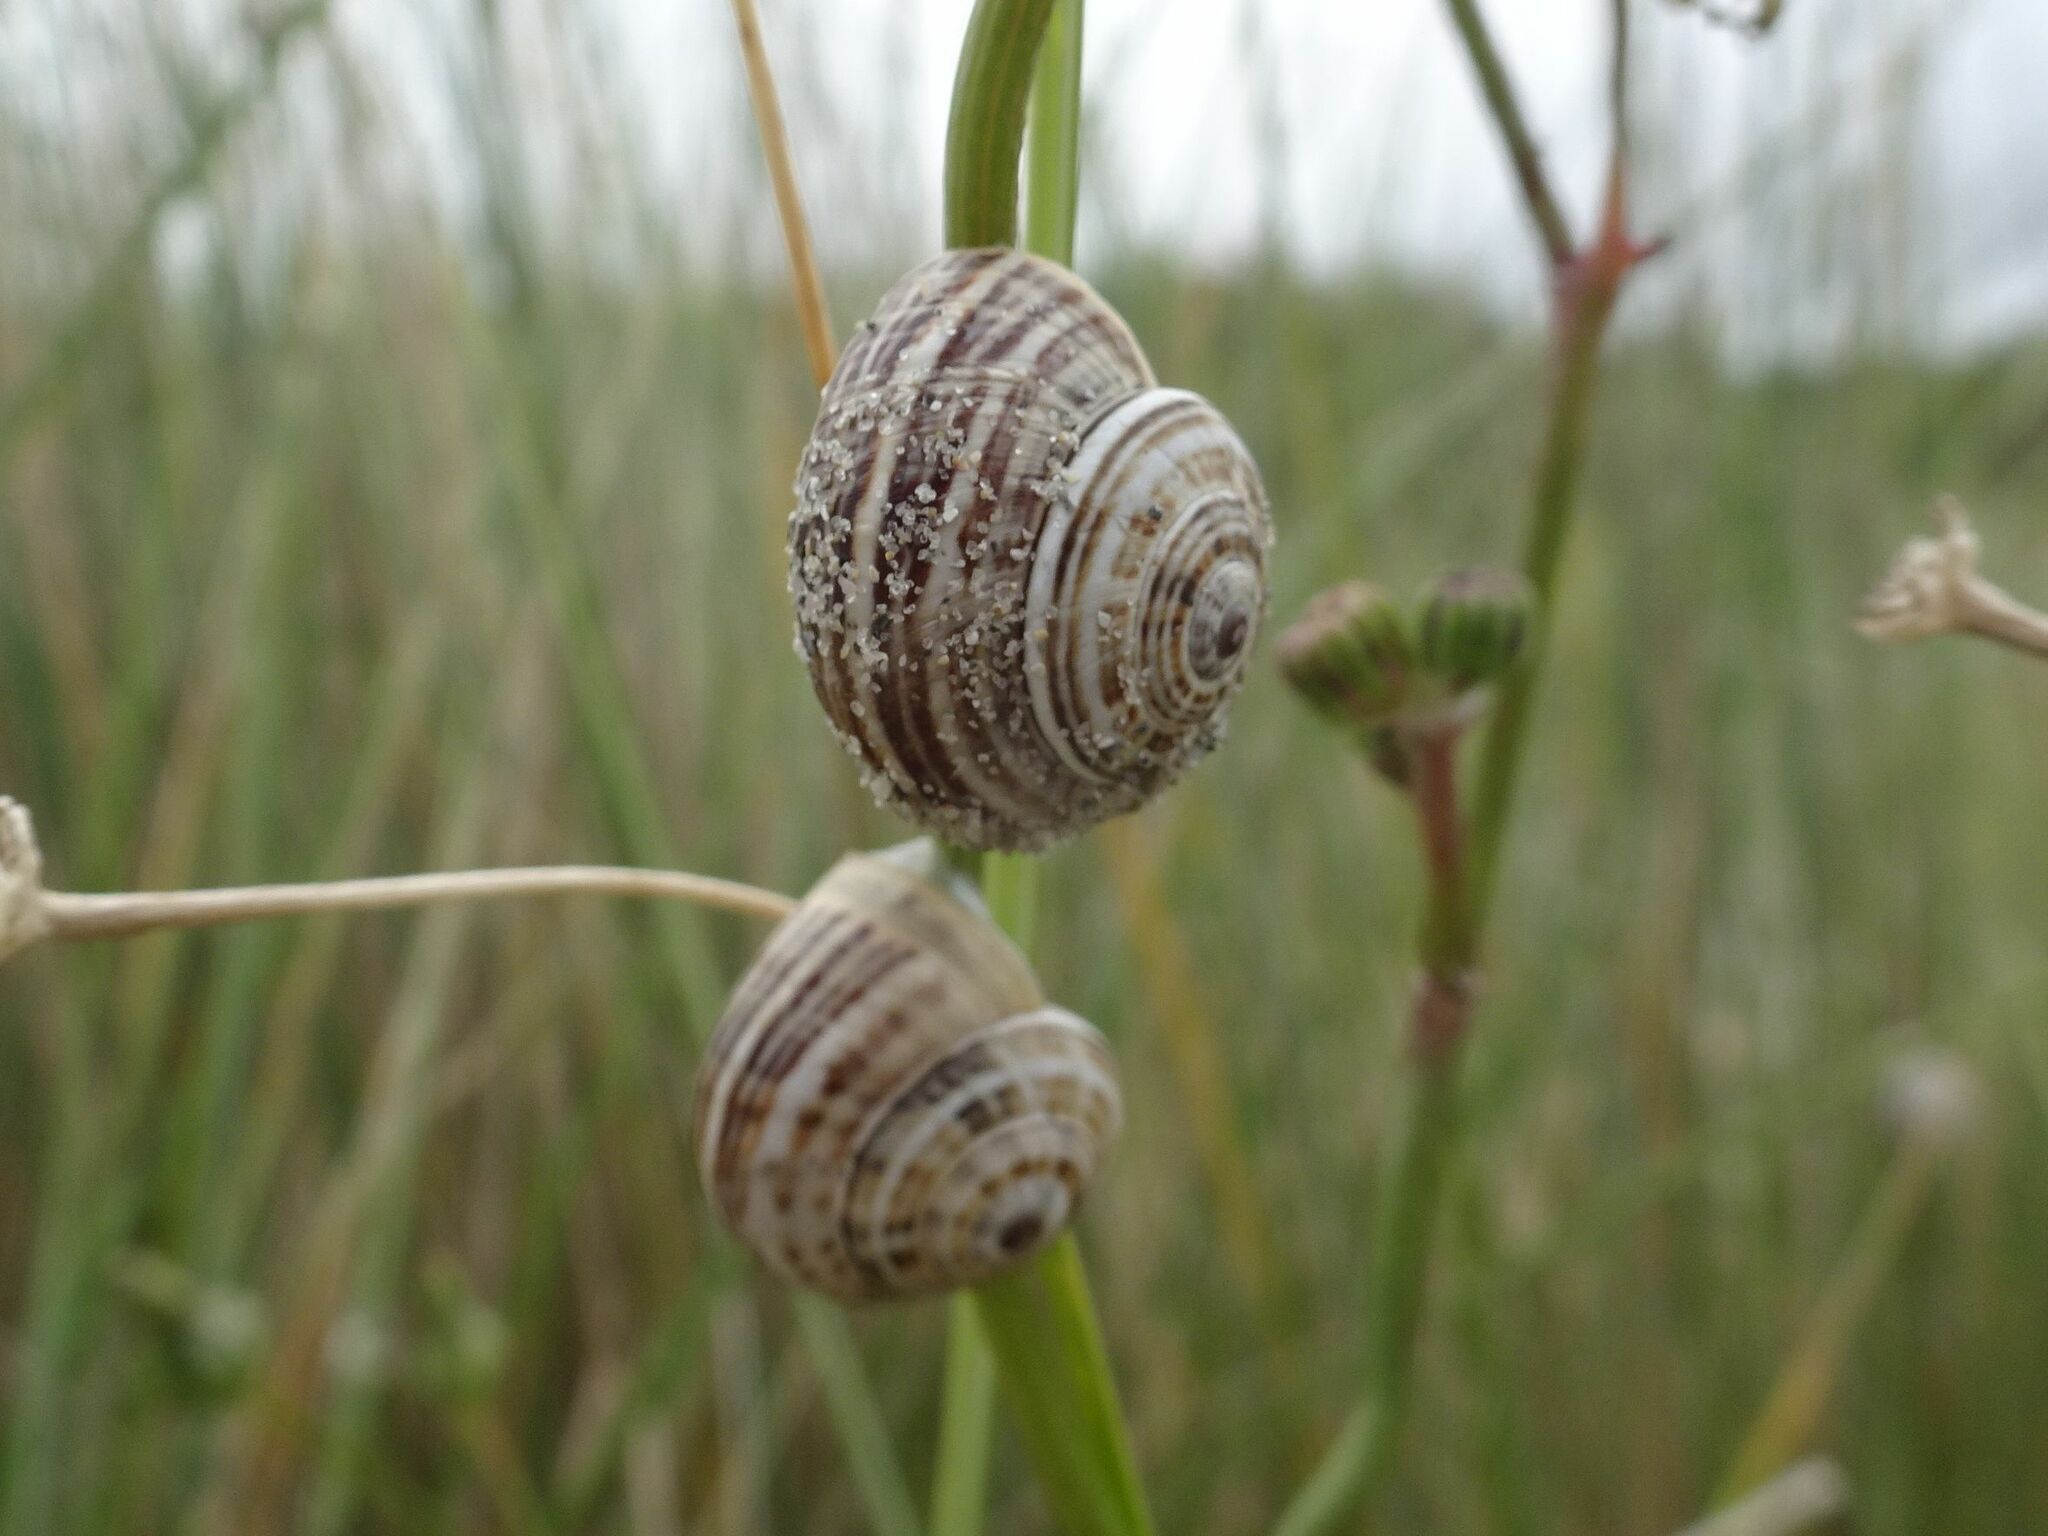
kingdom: Animalia
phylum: Mollusca
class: Gastropoda
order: Stylommatophora
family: Helicidae
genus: Theba
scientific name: Theba pisana
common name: White snail
